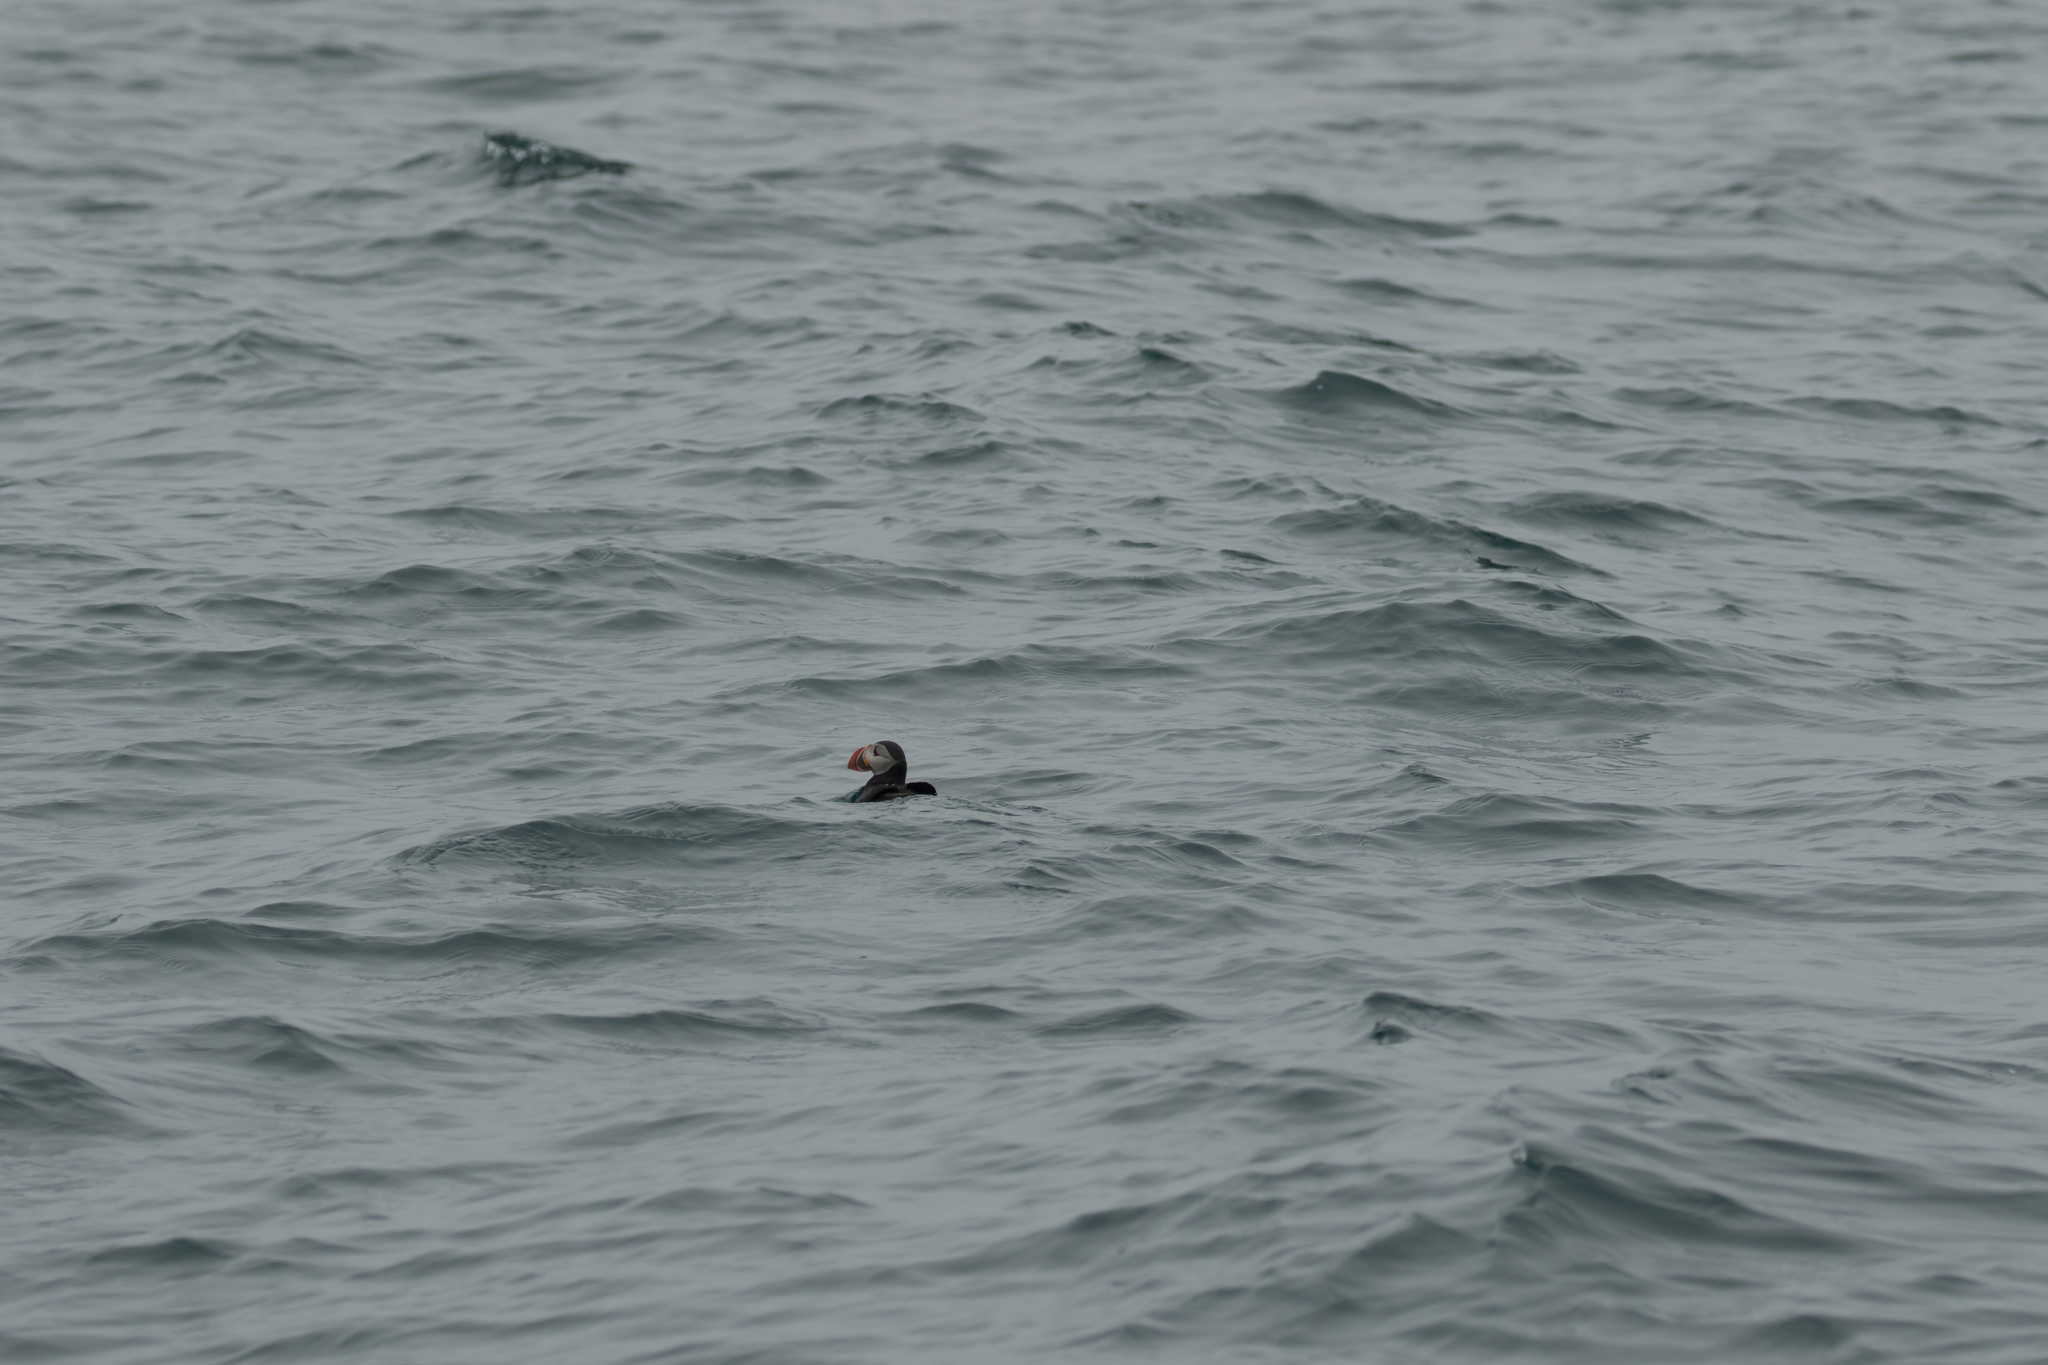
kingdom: Animalia
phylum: Chordata
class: Aves
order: Charadriiformes
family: Alcidae
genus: Fratercula
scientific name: Fratercula arctica
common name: Atlantic puffin
